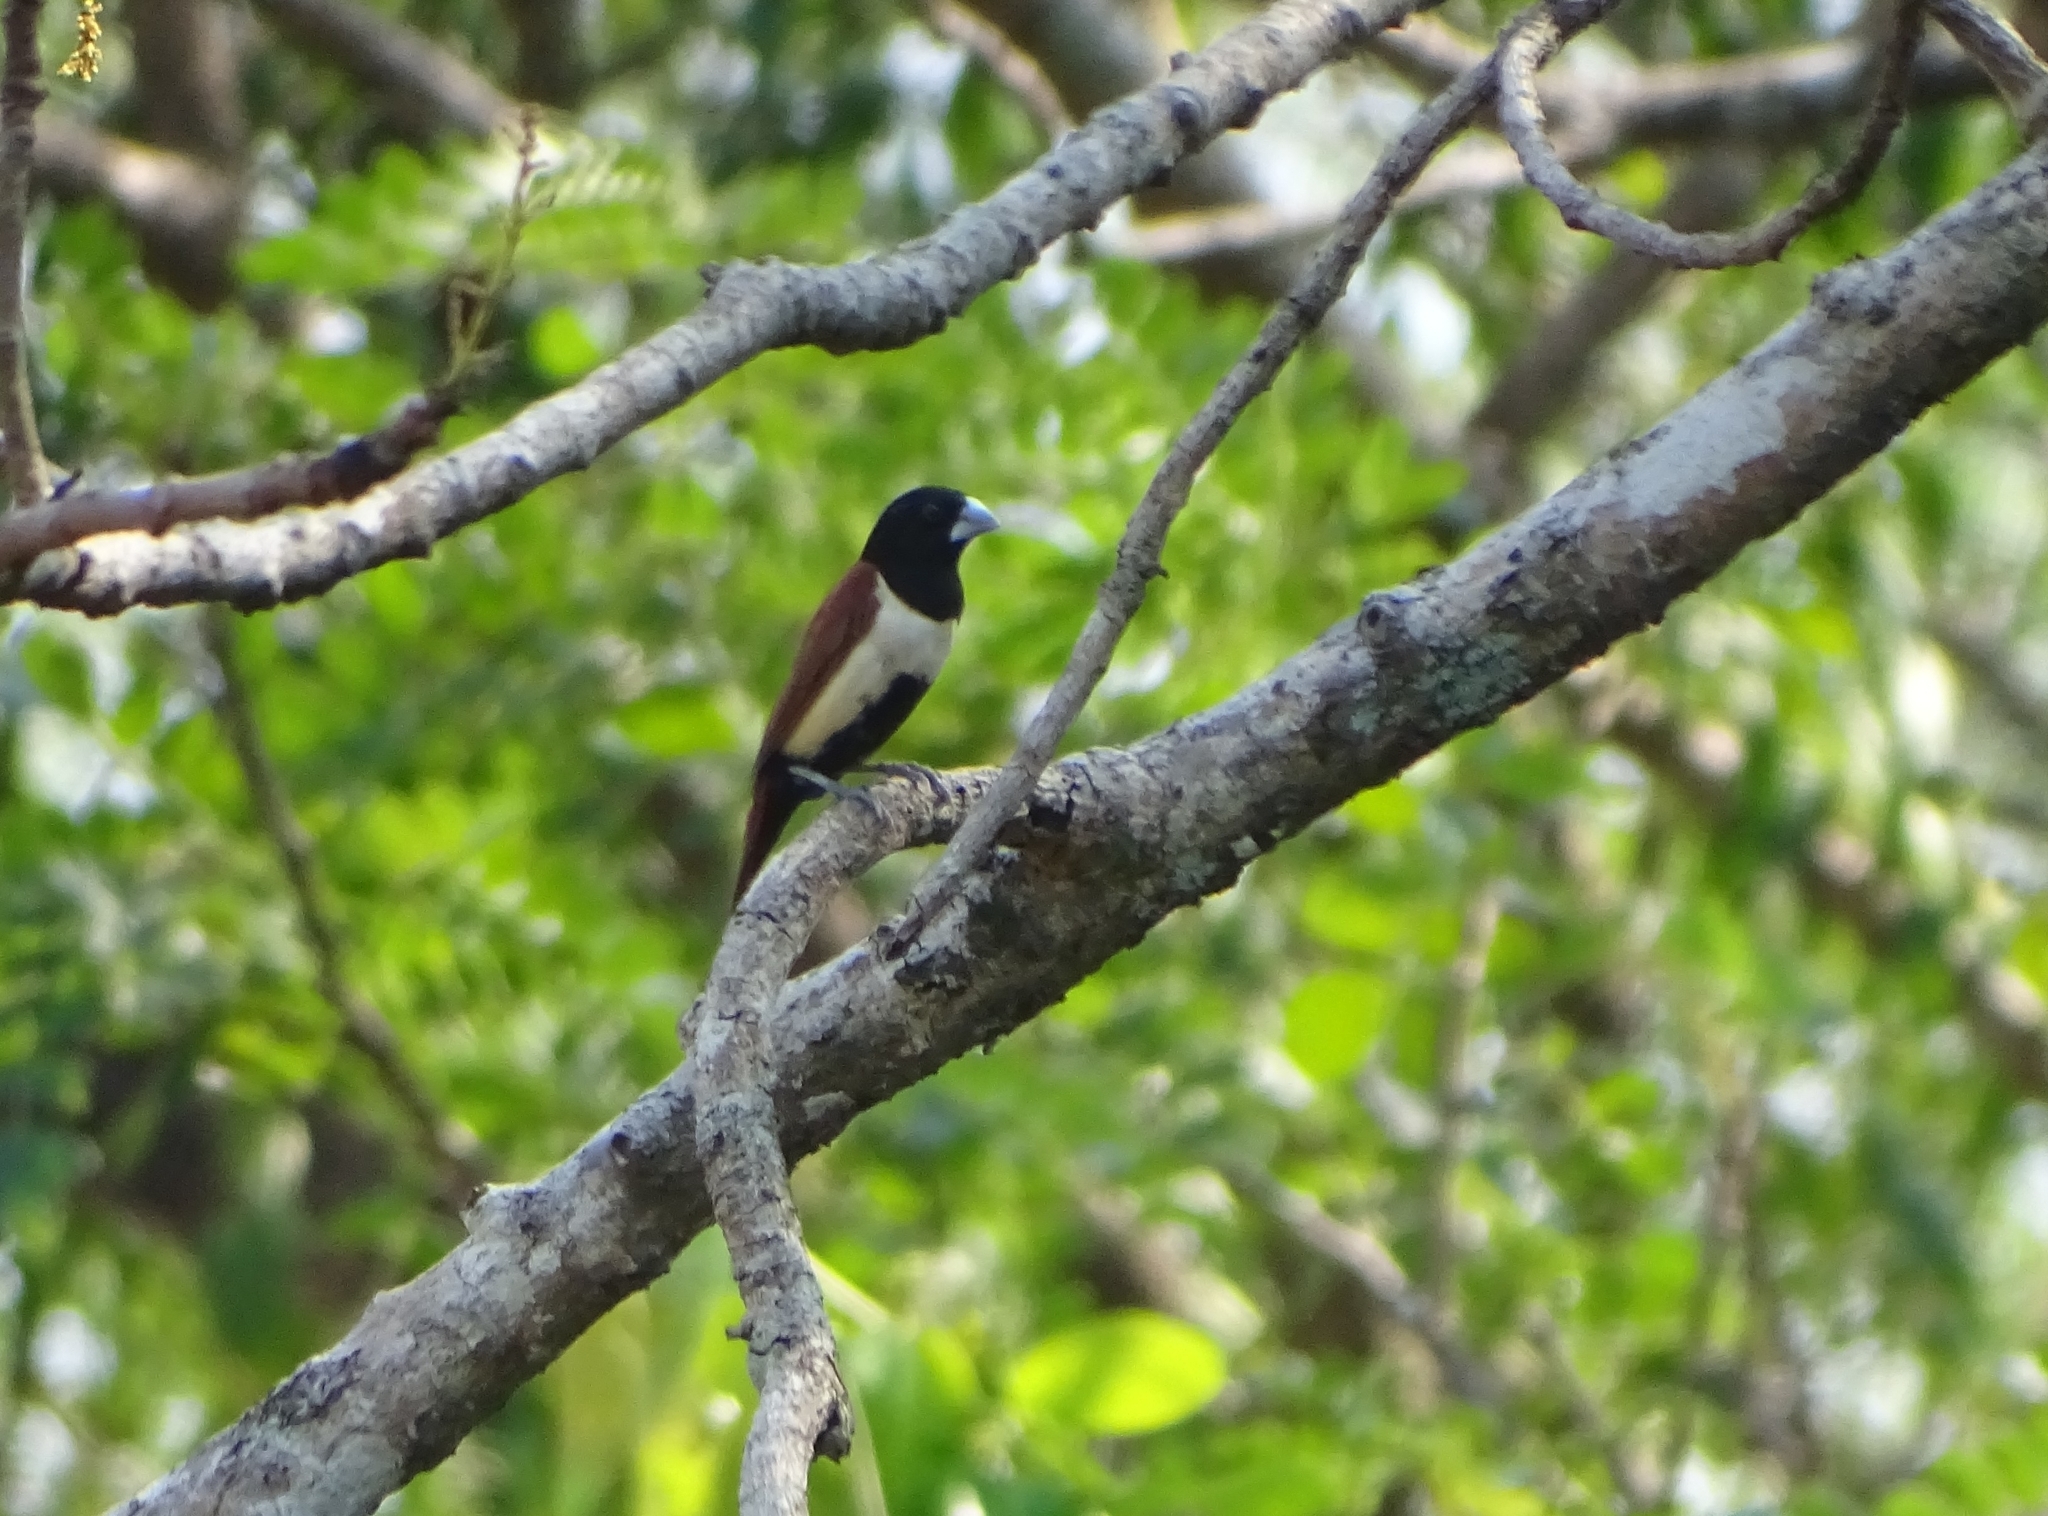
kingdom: Animalia
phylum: Chordata
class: Aves
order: Passeriformes
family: Estrildidae
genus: Lonchura
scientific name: Lonchura malacca
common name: Tricolored munia
